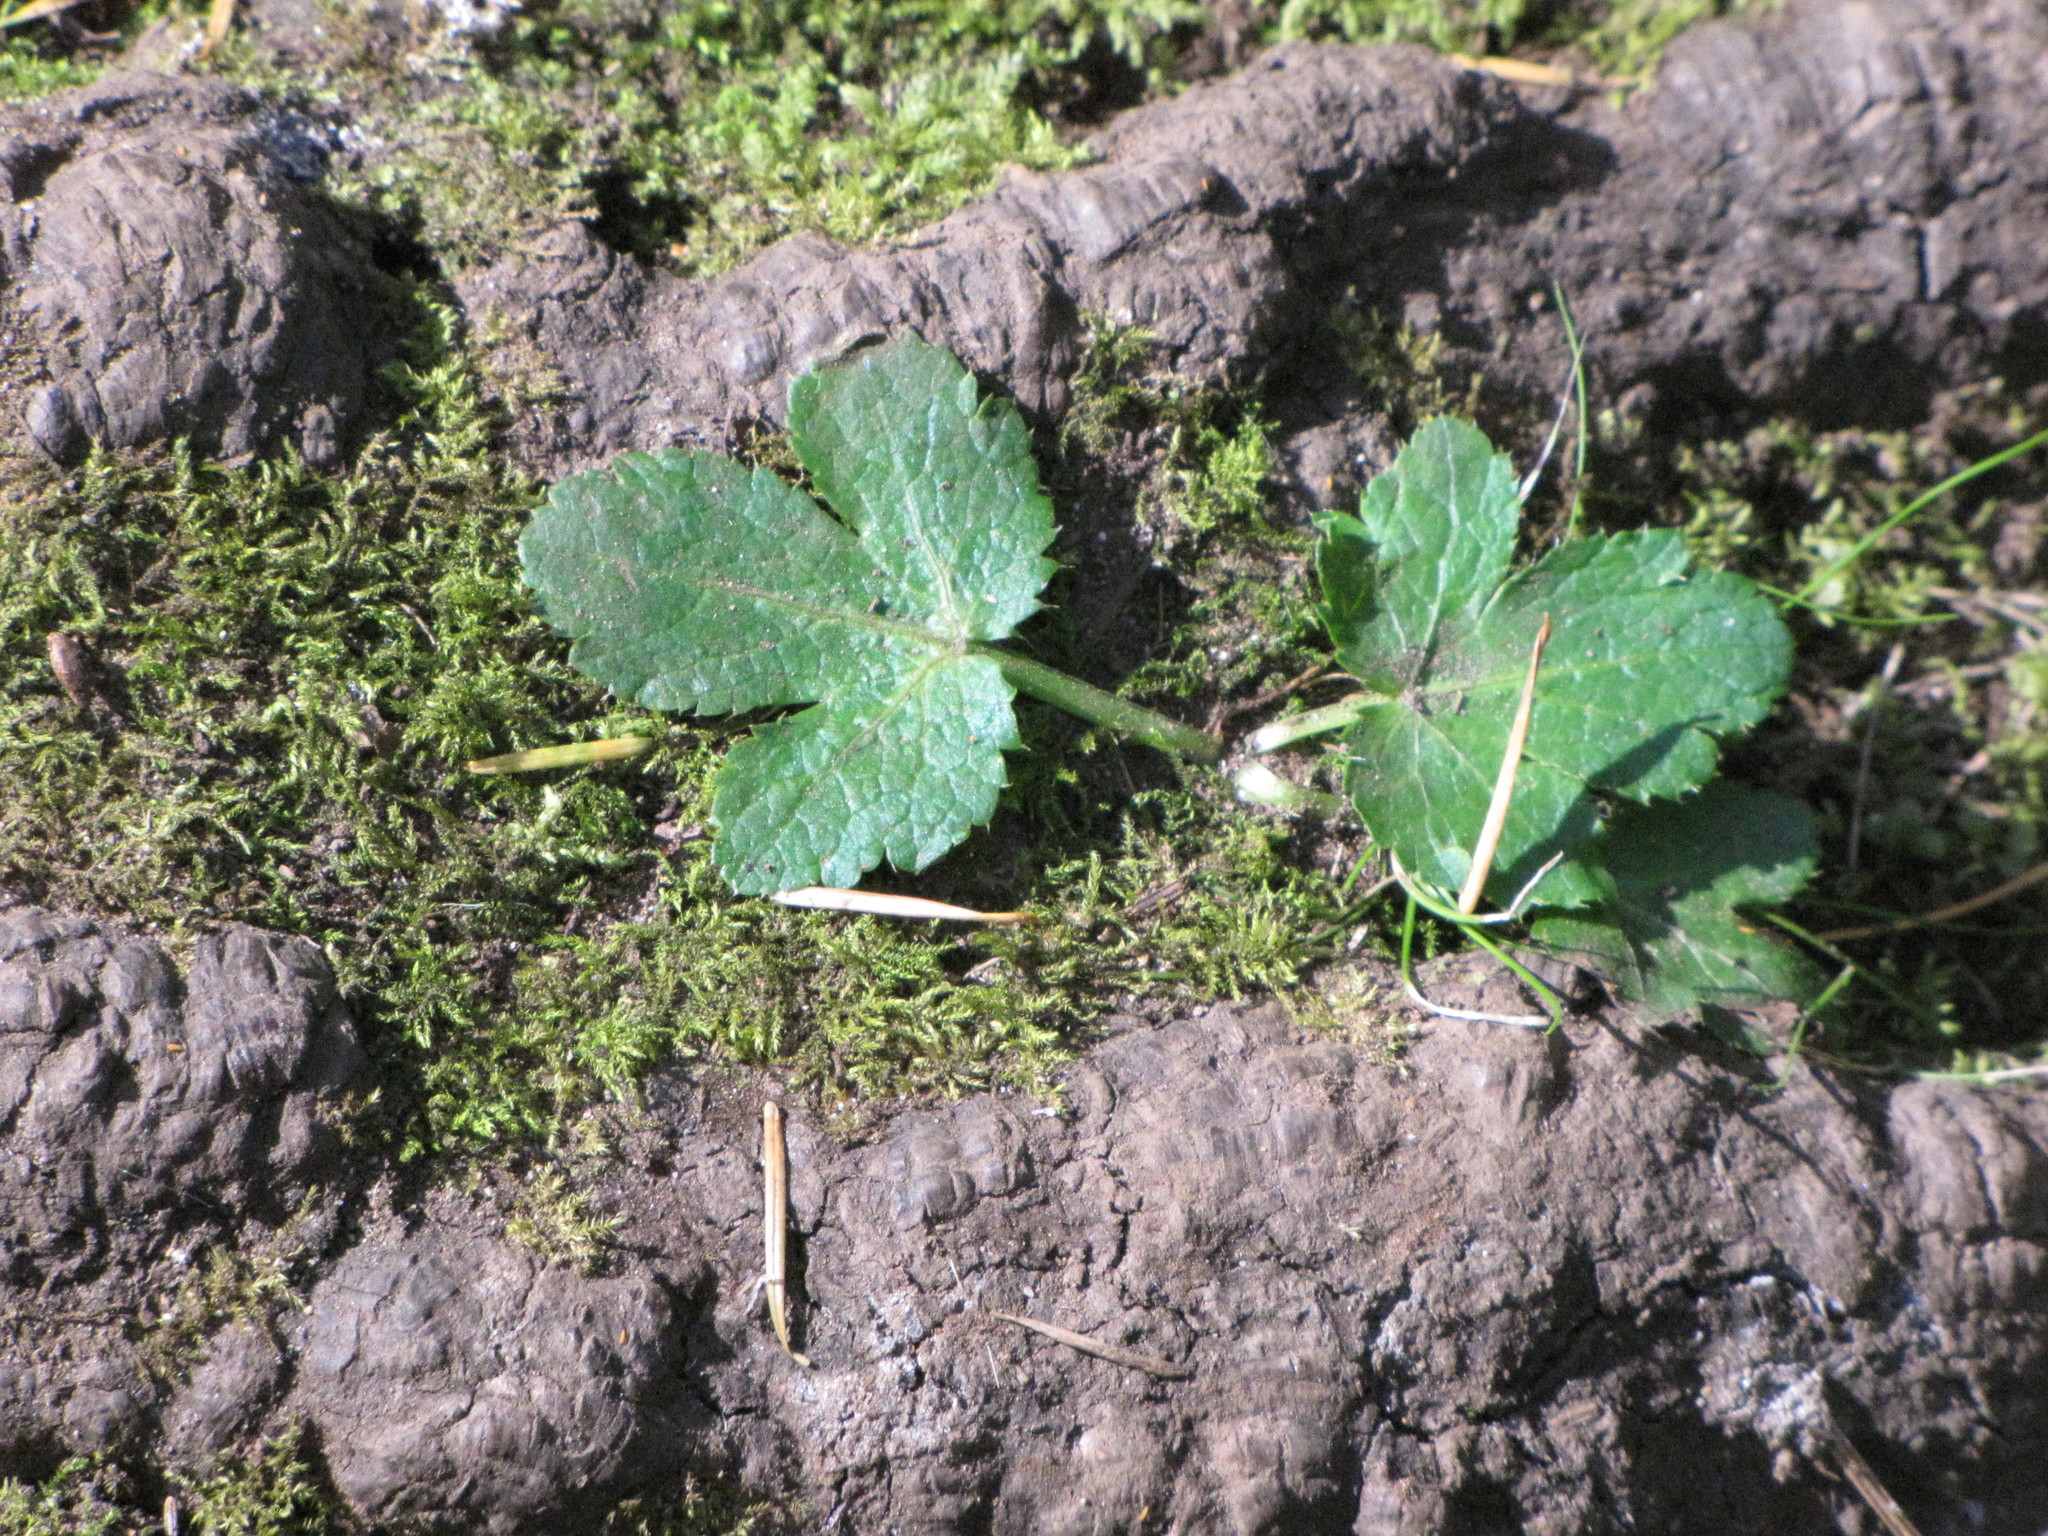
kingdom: Plantae
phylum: Tracheophyta
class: Magnoliopsida
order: Apiales
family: Apiaceae
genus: Sanicula
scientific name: Sanicula crassicaulis
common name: Western snakeroot
